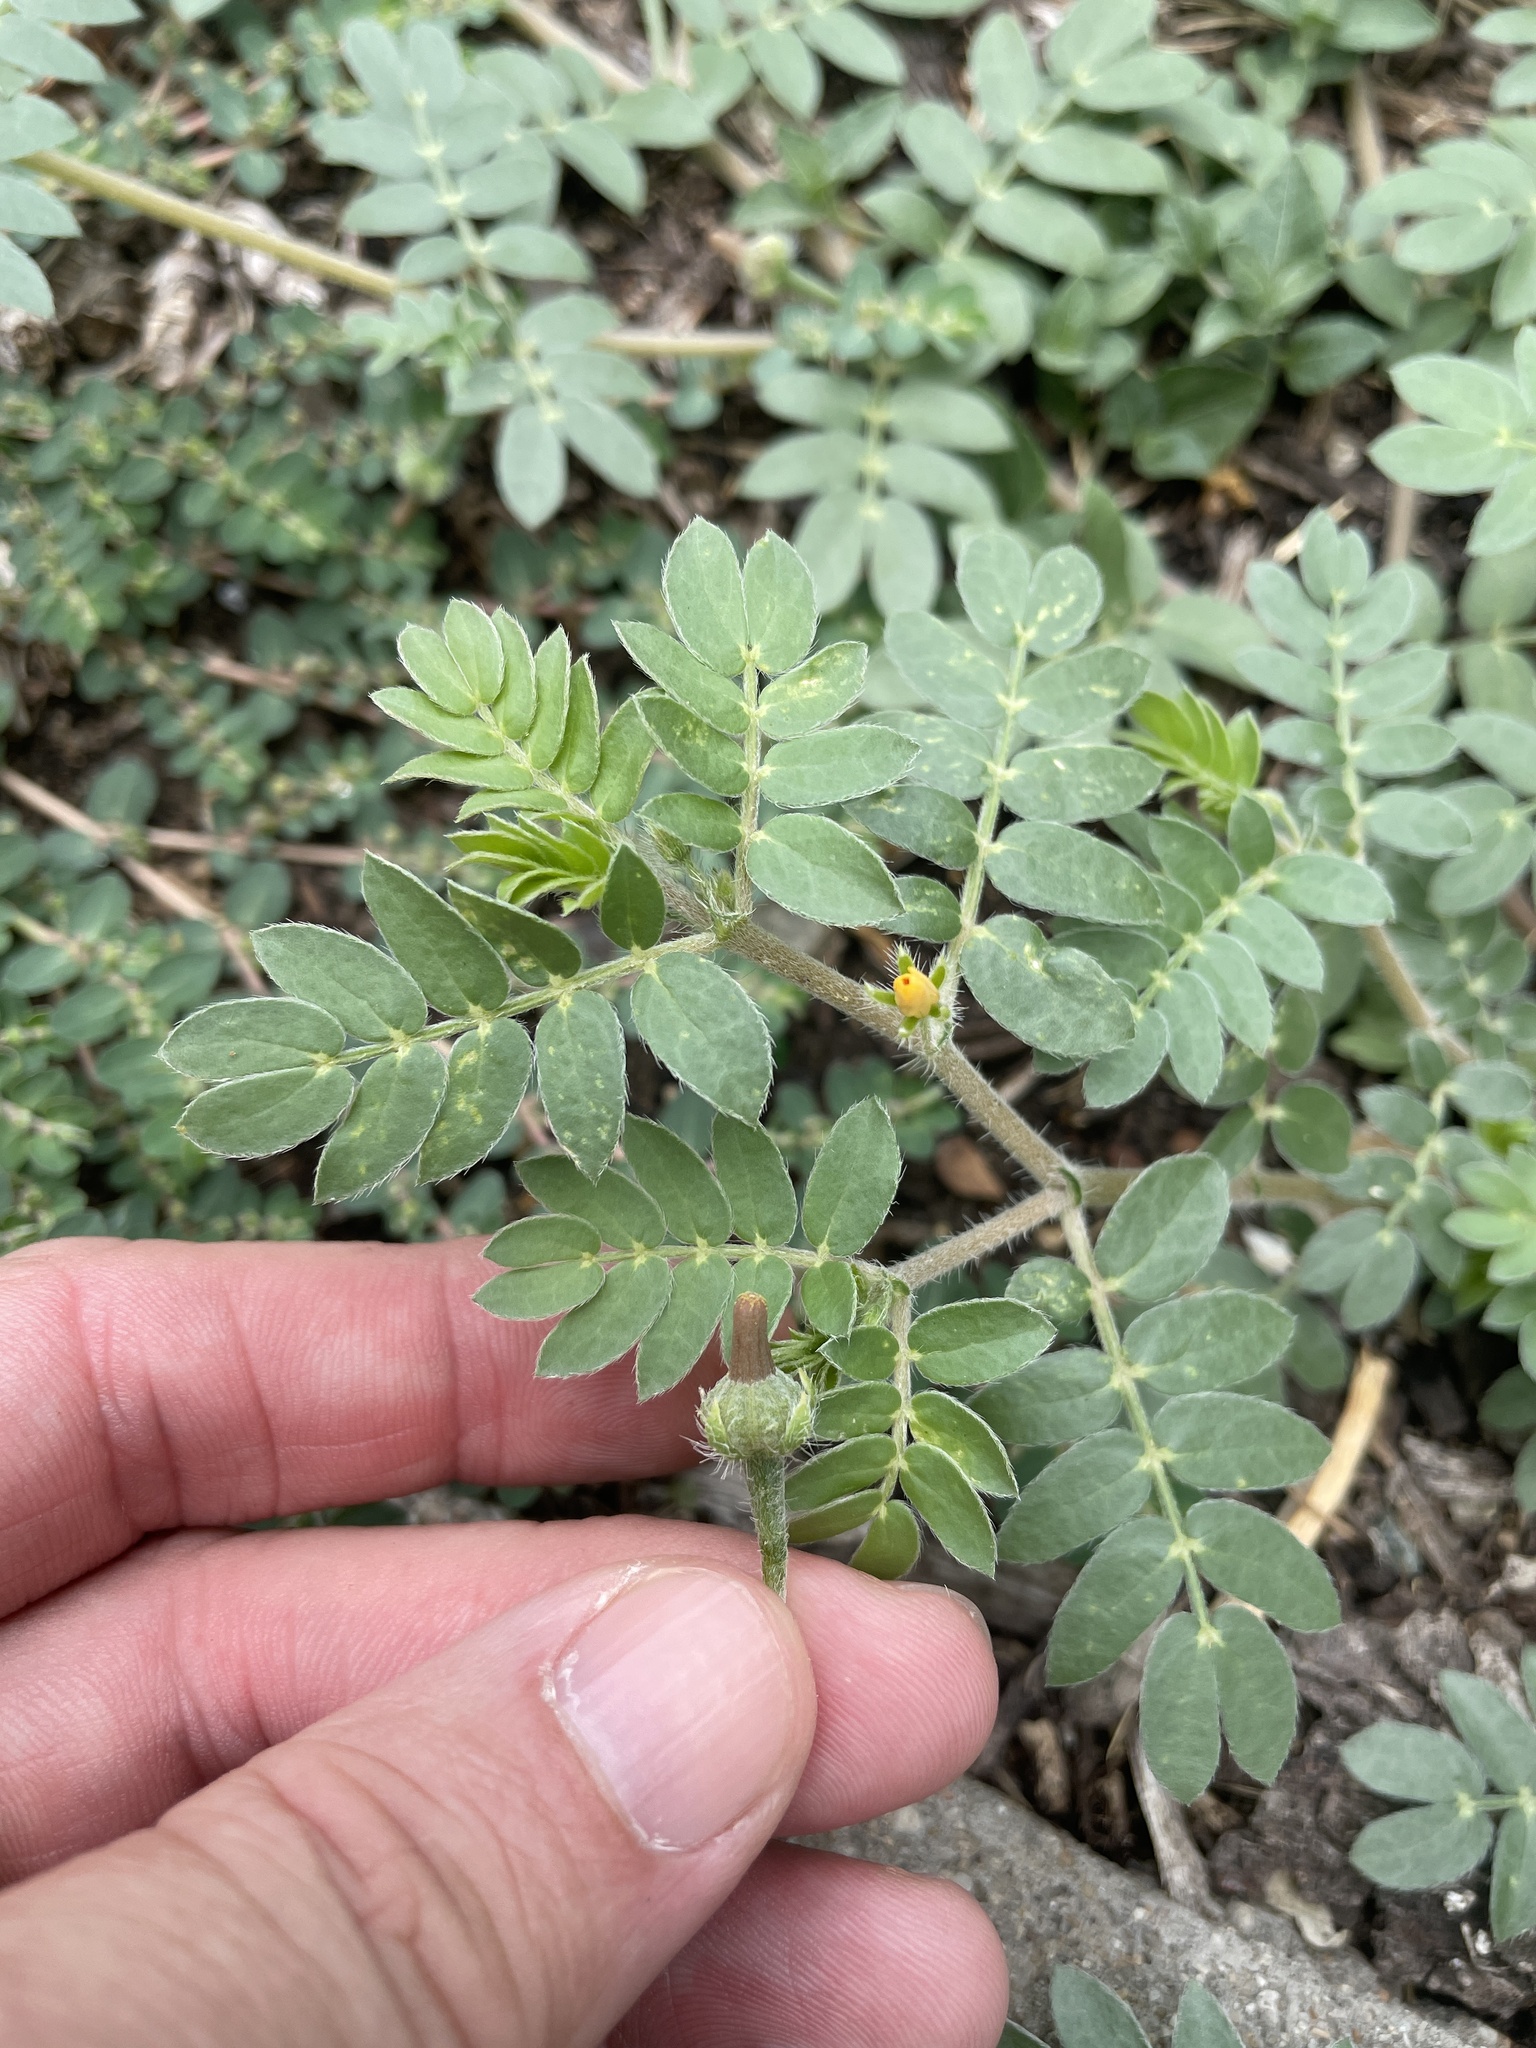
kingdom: Plantae
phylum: Tracheophyta
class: Magnoliopsida
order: Zygophyllales
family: Zygophyllaceae
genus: Kallstroemia
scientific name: Kallstroemia parviflora
